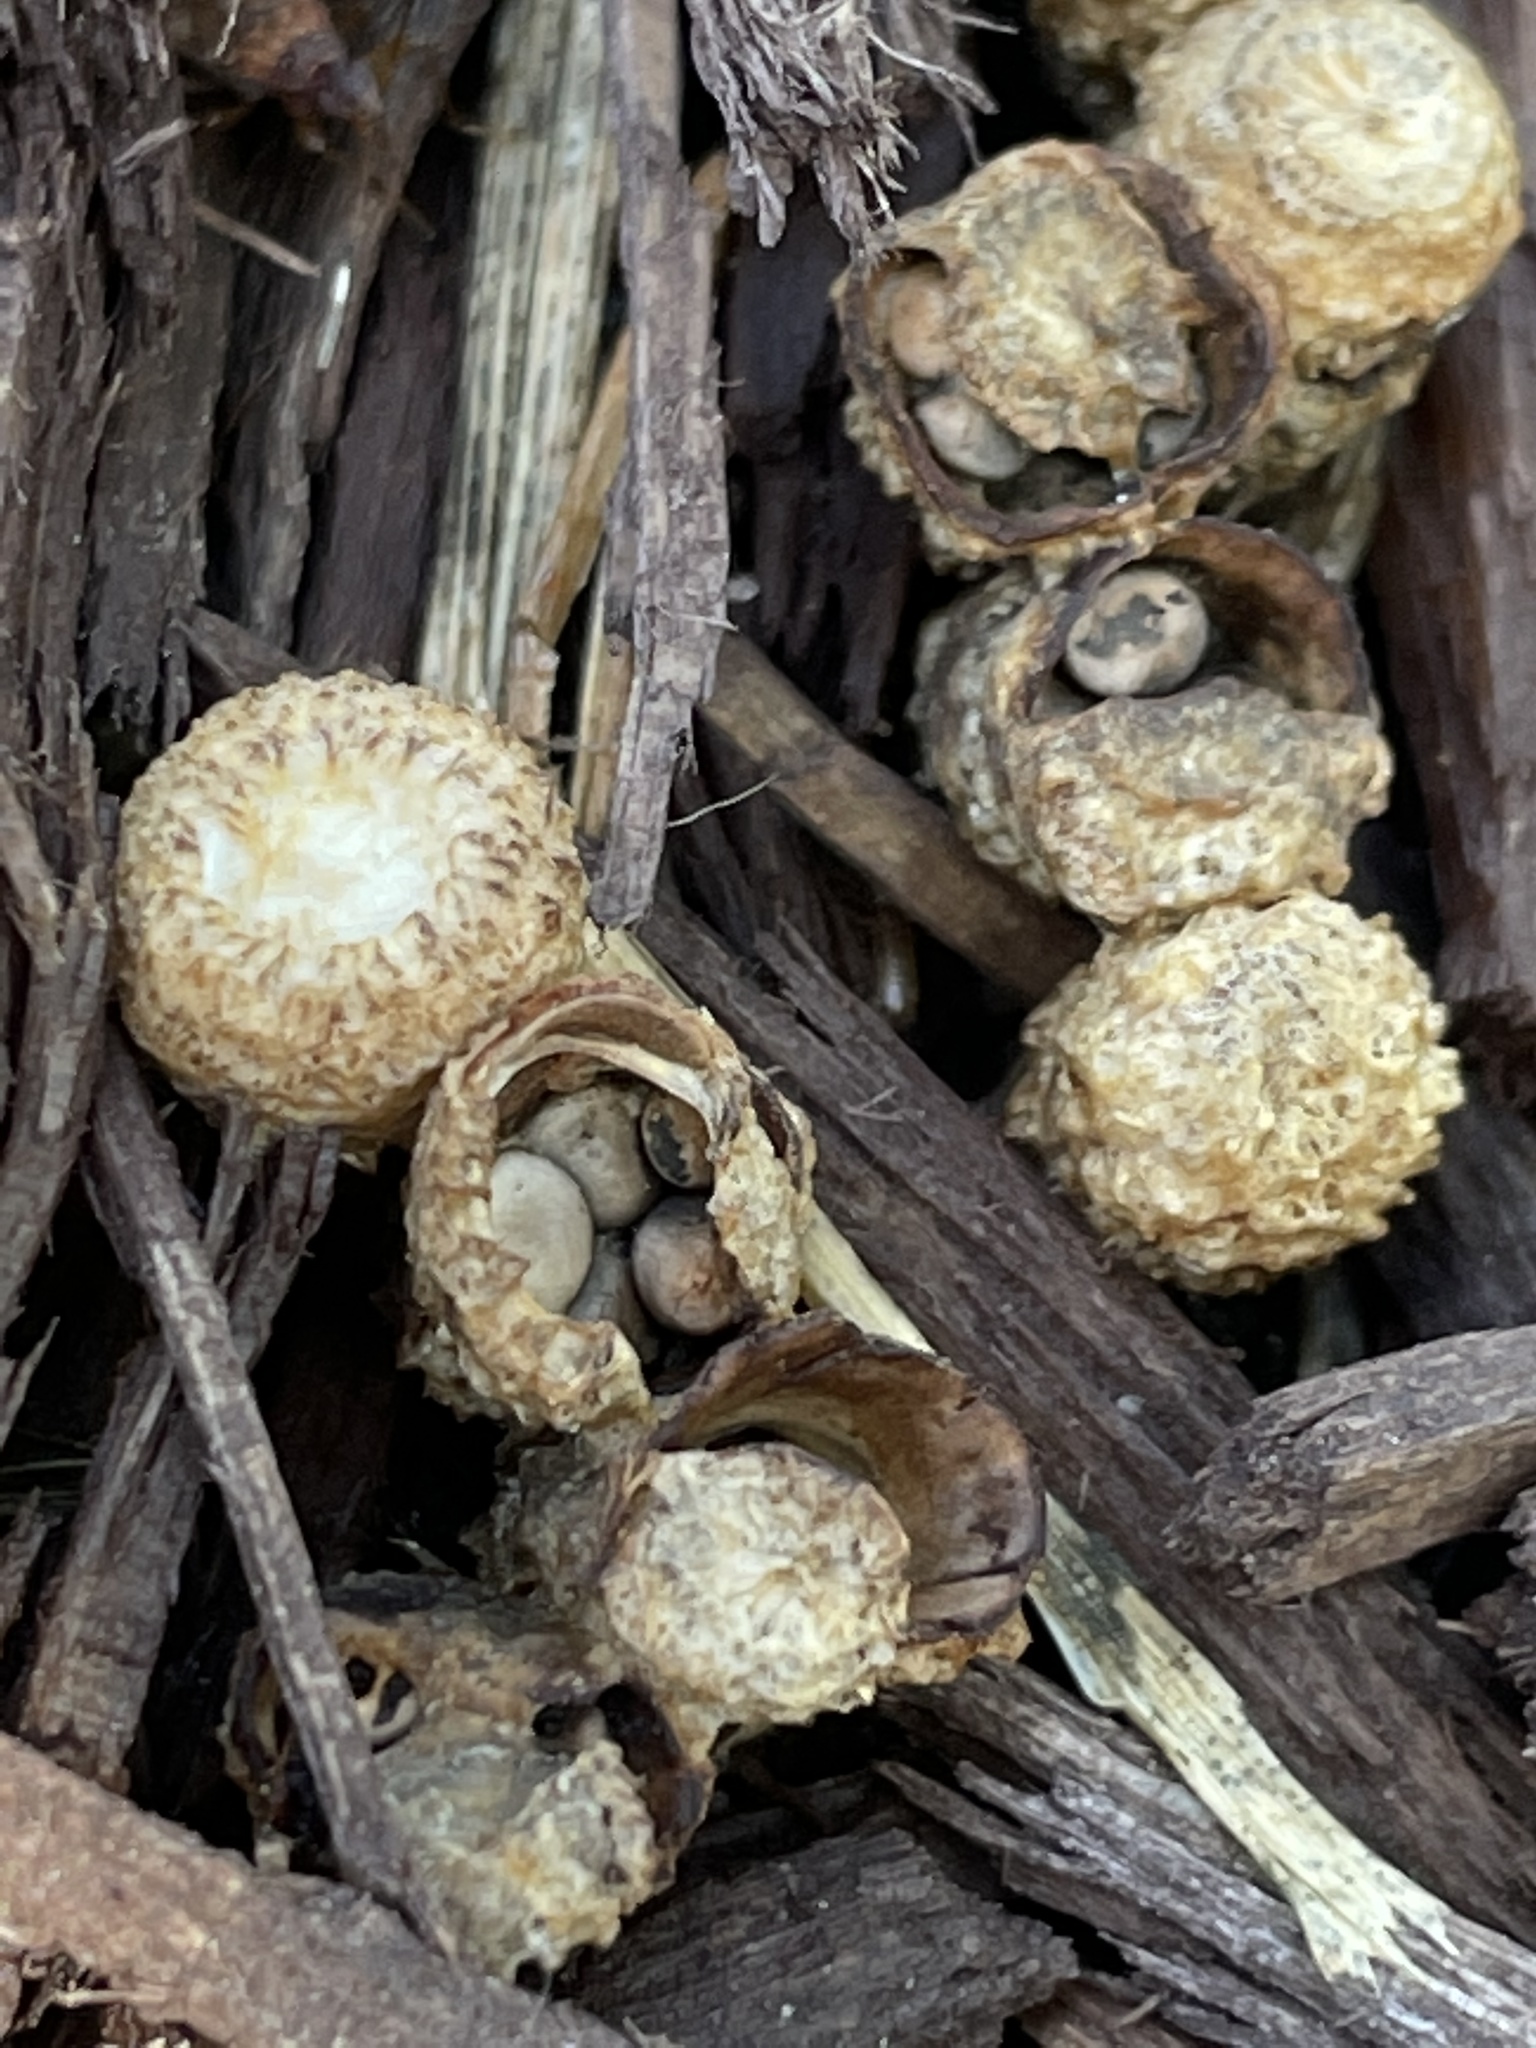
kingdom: Fungi
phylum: Basidiomycota
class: Agaricomycetes
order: Agaricales
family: Agaricaceae
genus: Cyathus
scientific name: Cyathus stercoreus
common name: Dung bird's nest
